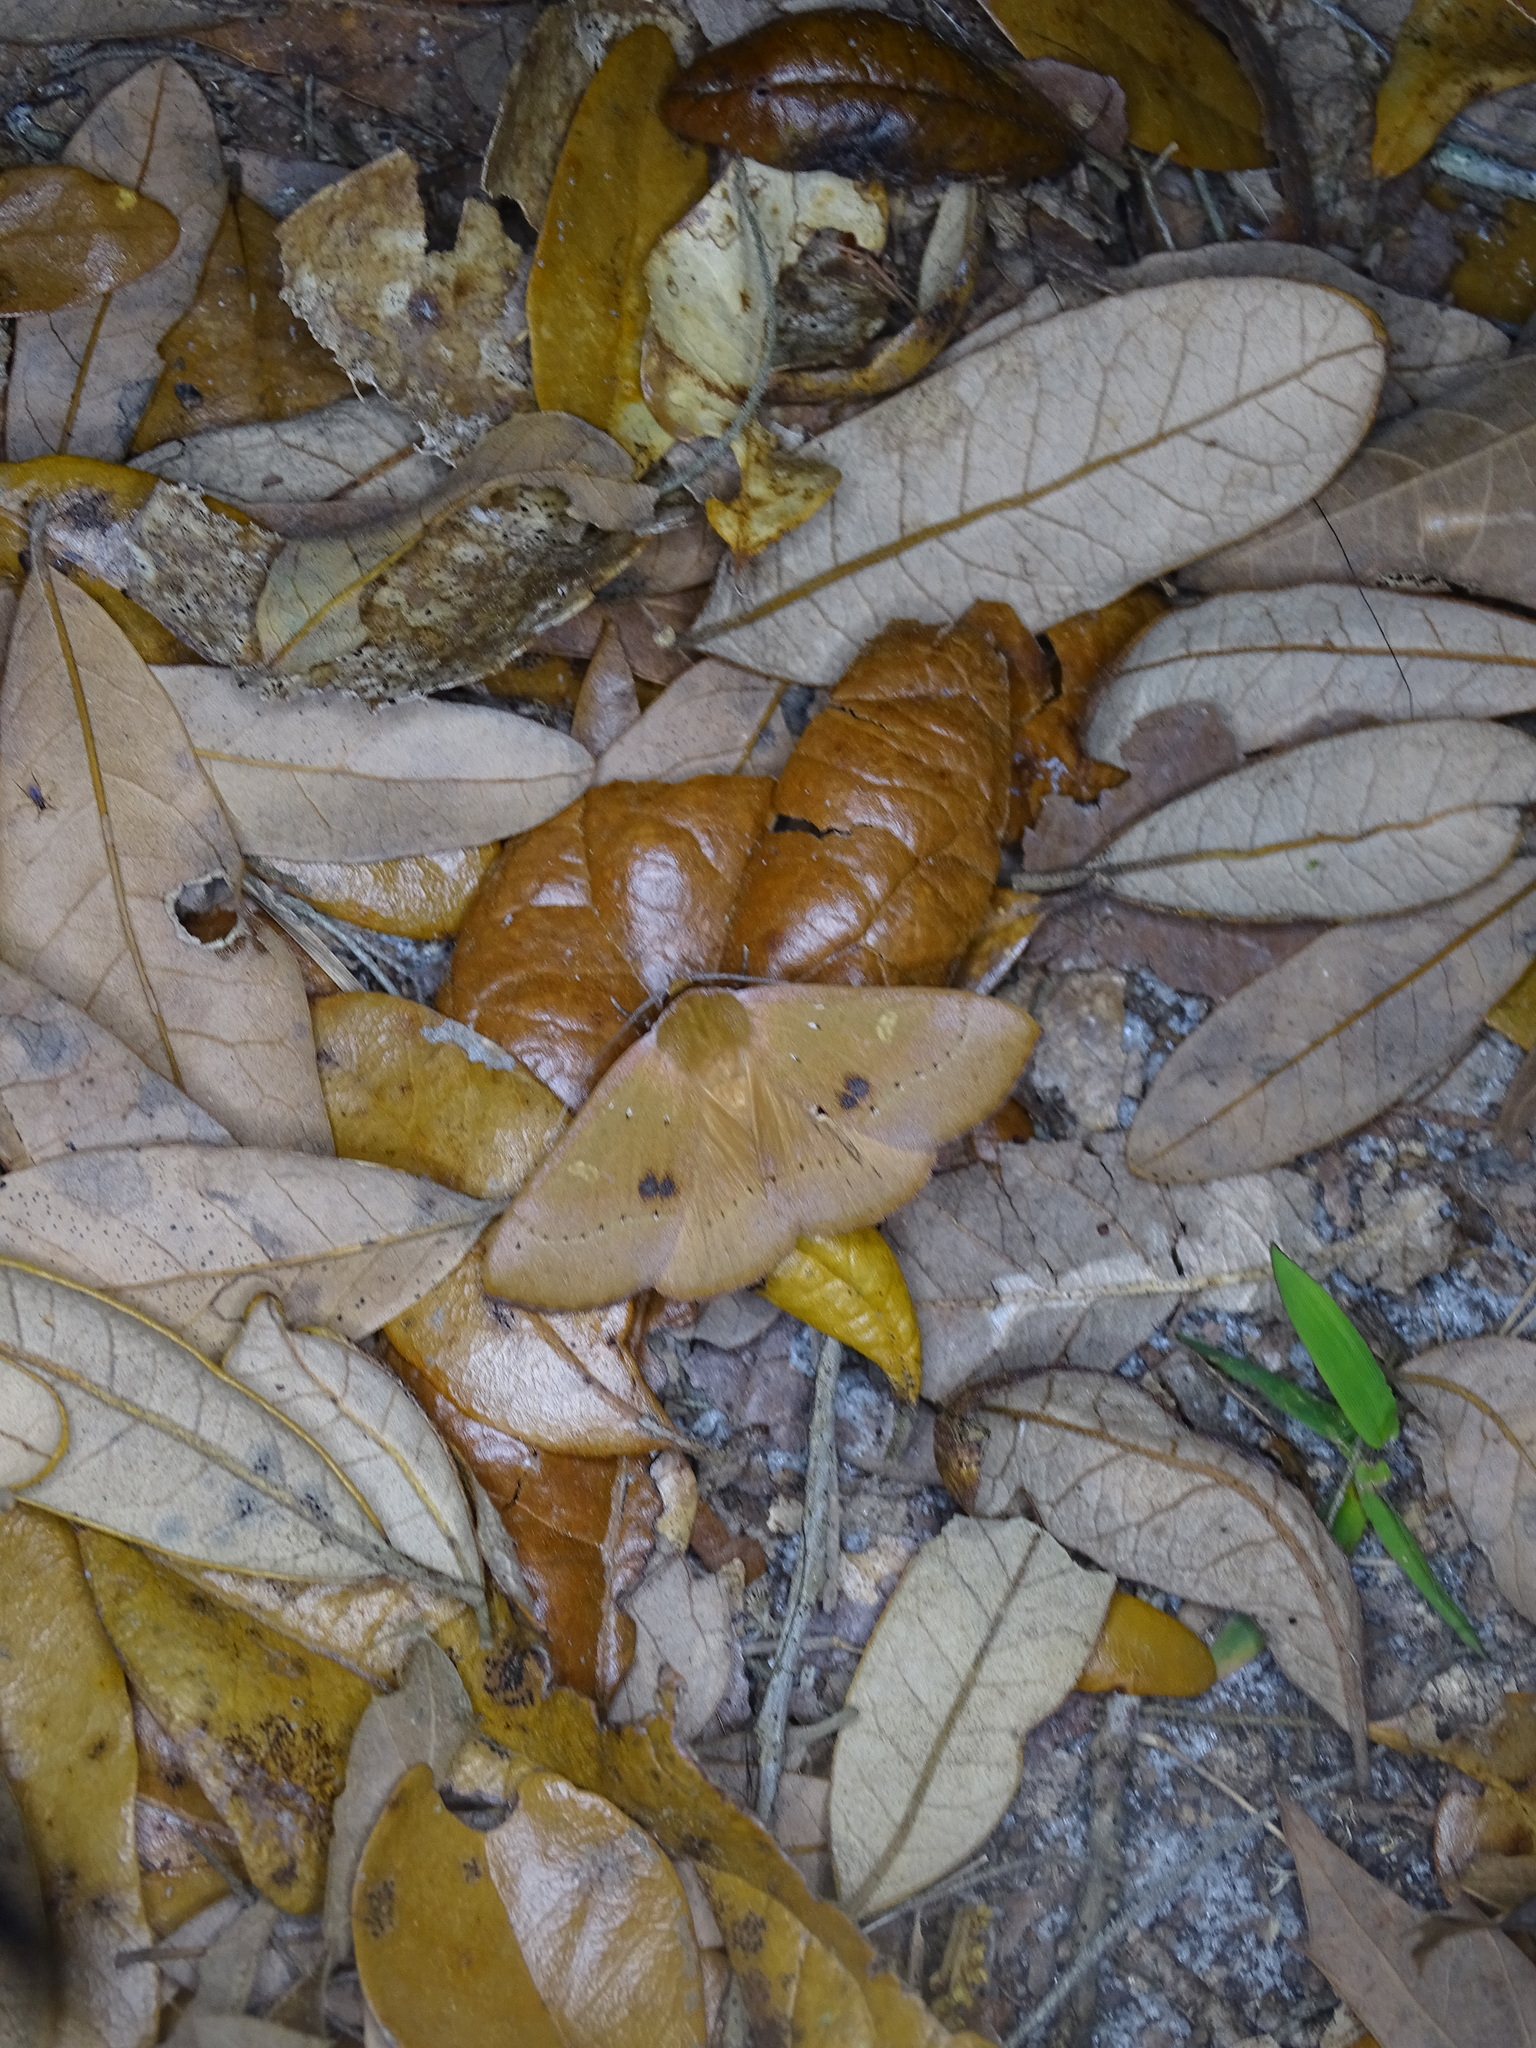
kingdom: Animalia
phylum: Arthropoda
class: Insecta
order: Lepidoptera
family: Erebidae
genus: Panopoda
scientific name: Panopoda repanda
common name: Orange panopoda
